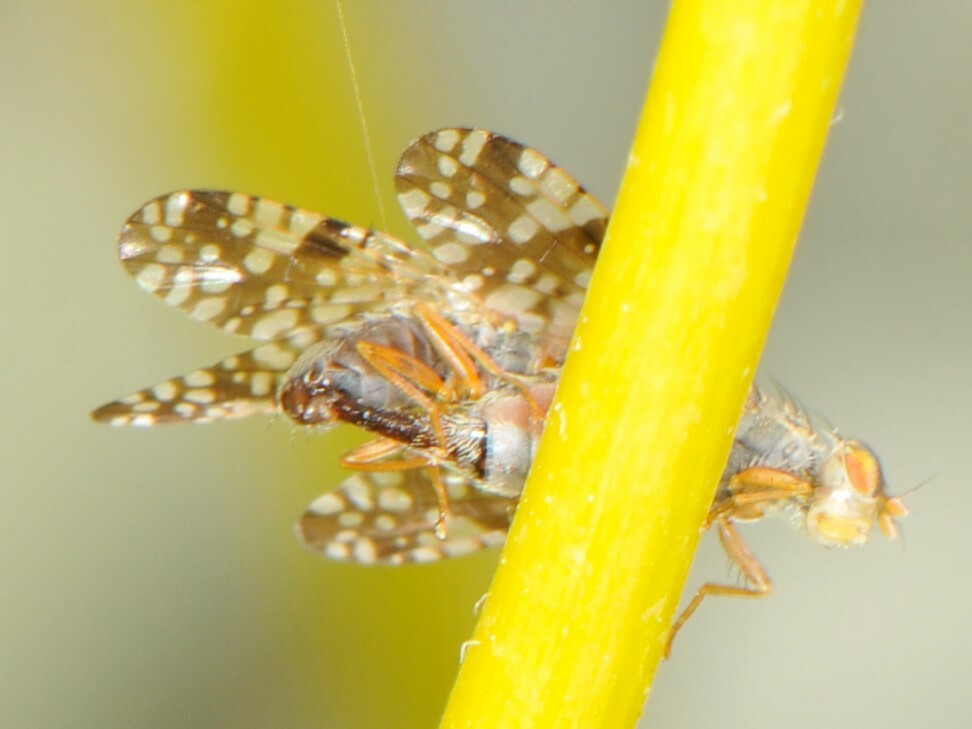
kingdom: Animalia
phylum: Arthropoda
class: Insecta
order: Diptera
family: Tephritidae
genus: Neotephritis
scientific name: Neotephritis finalis
